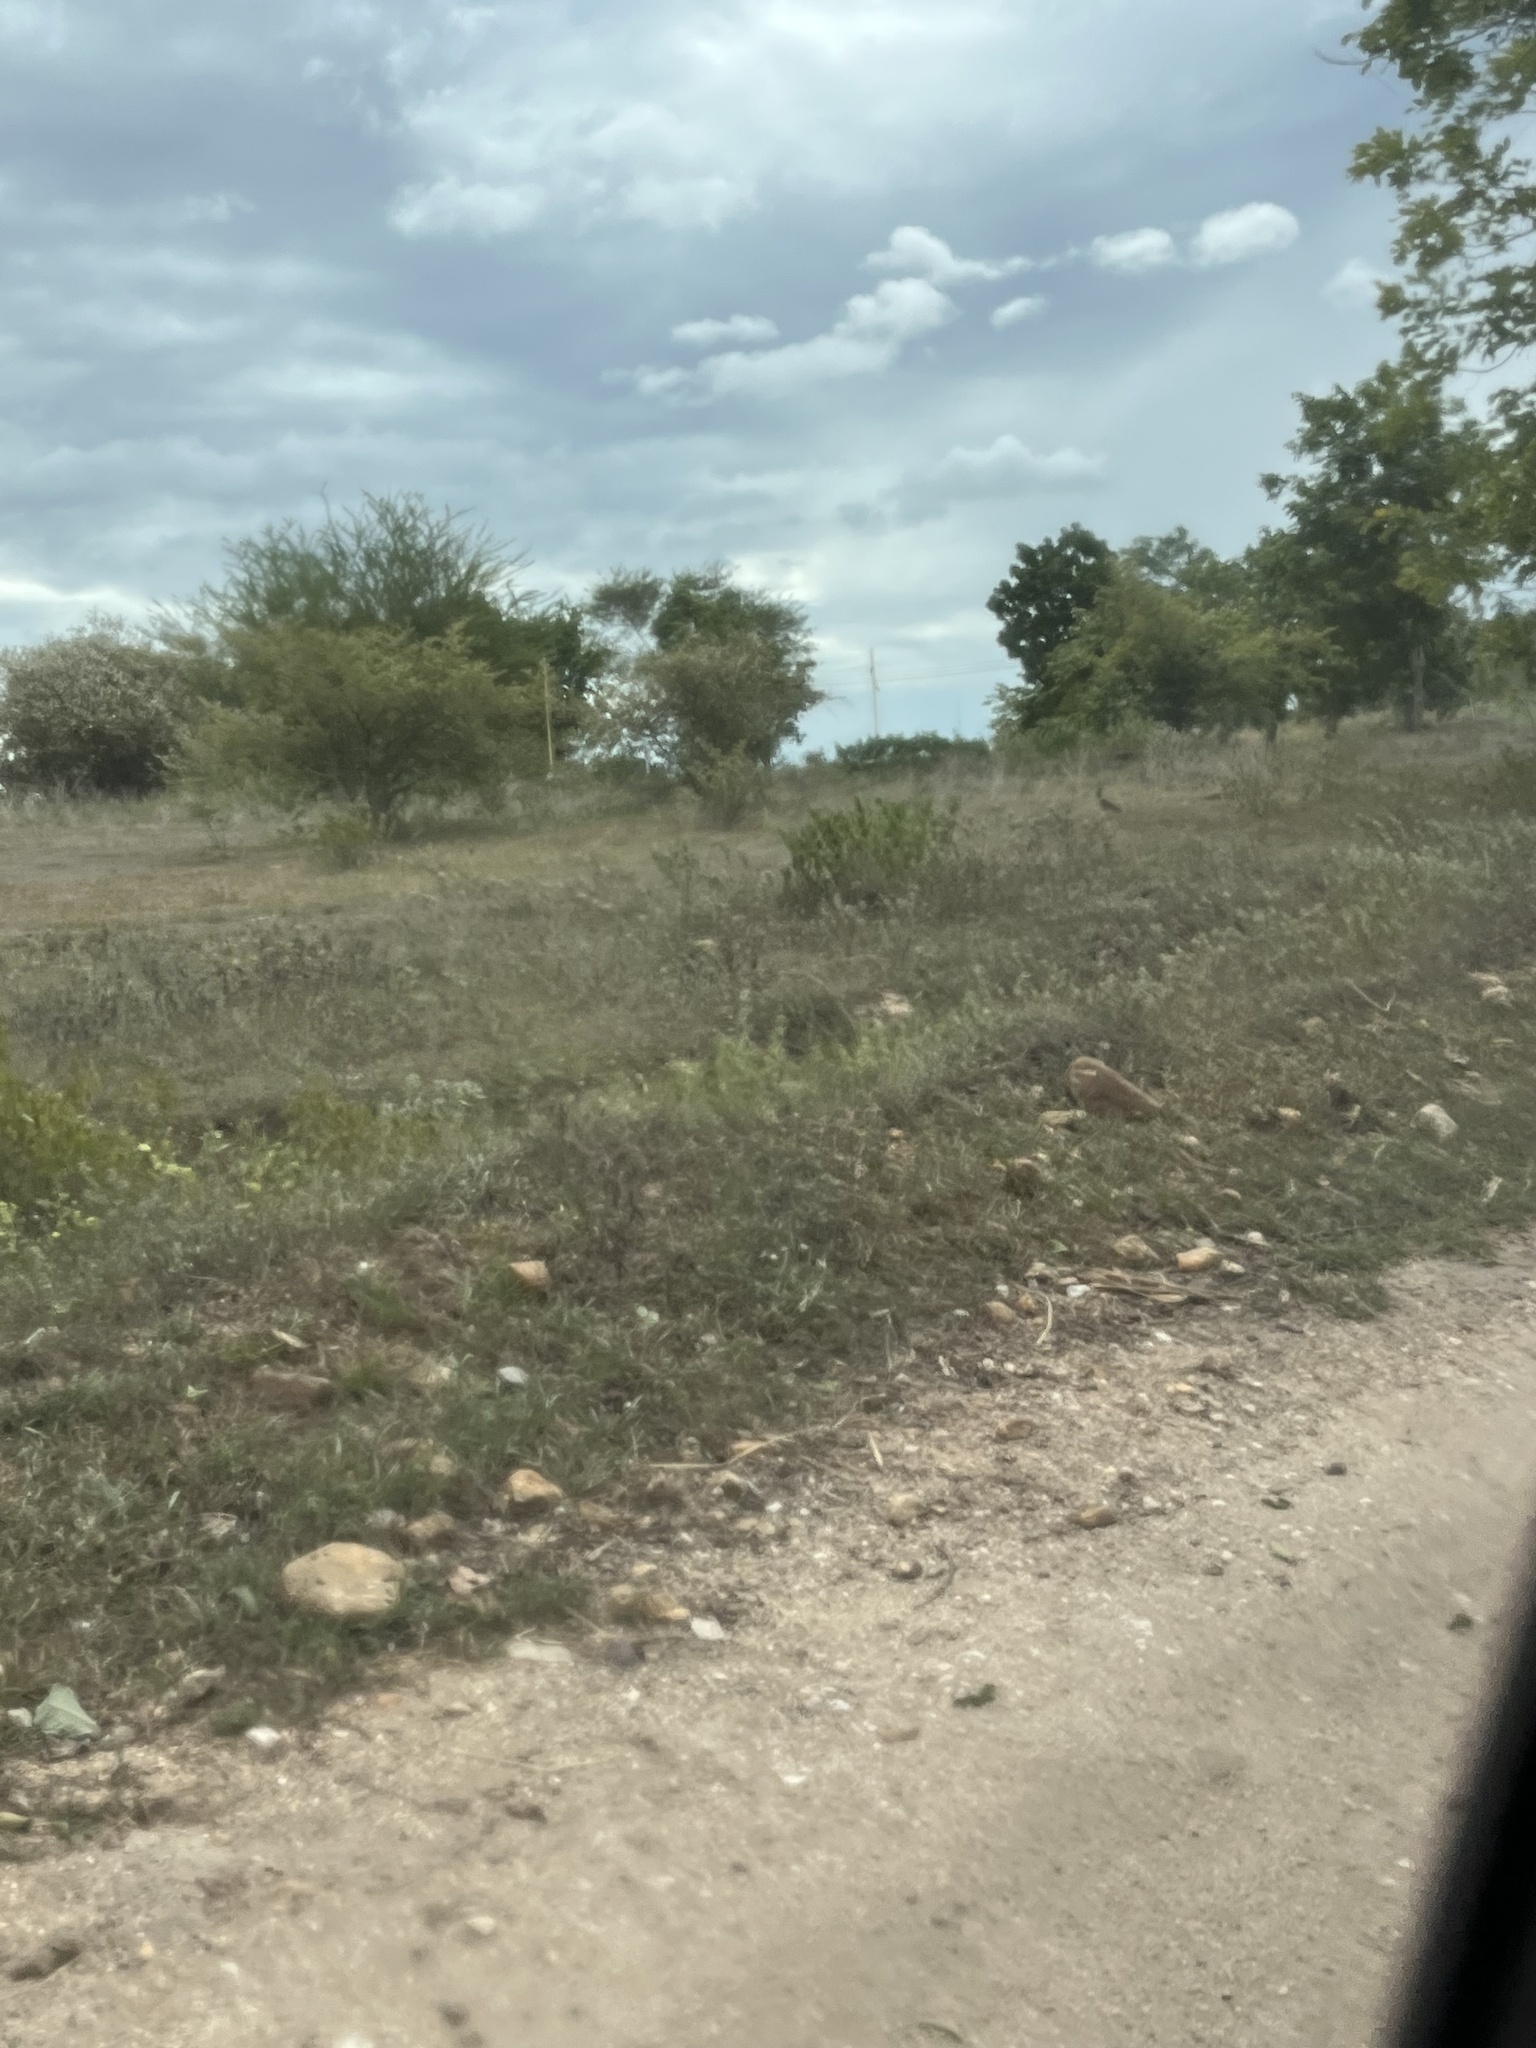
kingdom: Animalia
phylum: Chordata
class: Aves
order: Charadriiformes
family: Charadriidae
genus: Vanellus
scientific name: Vanellus indicus
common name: Red-wattled lapwing
